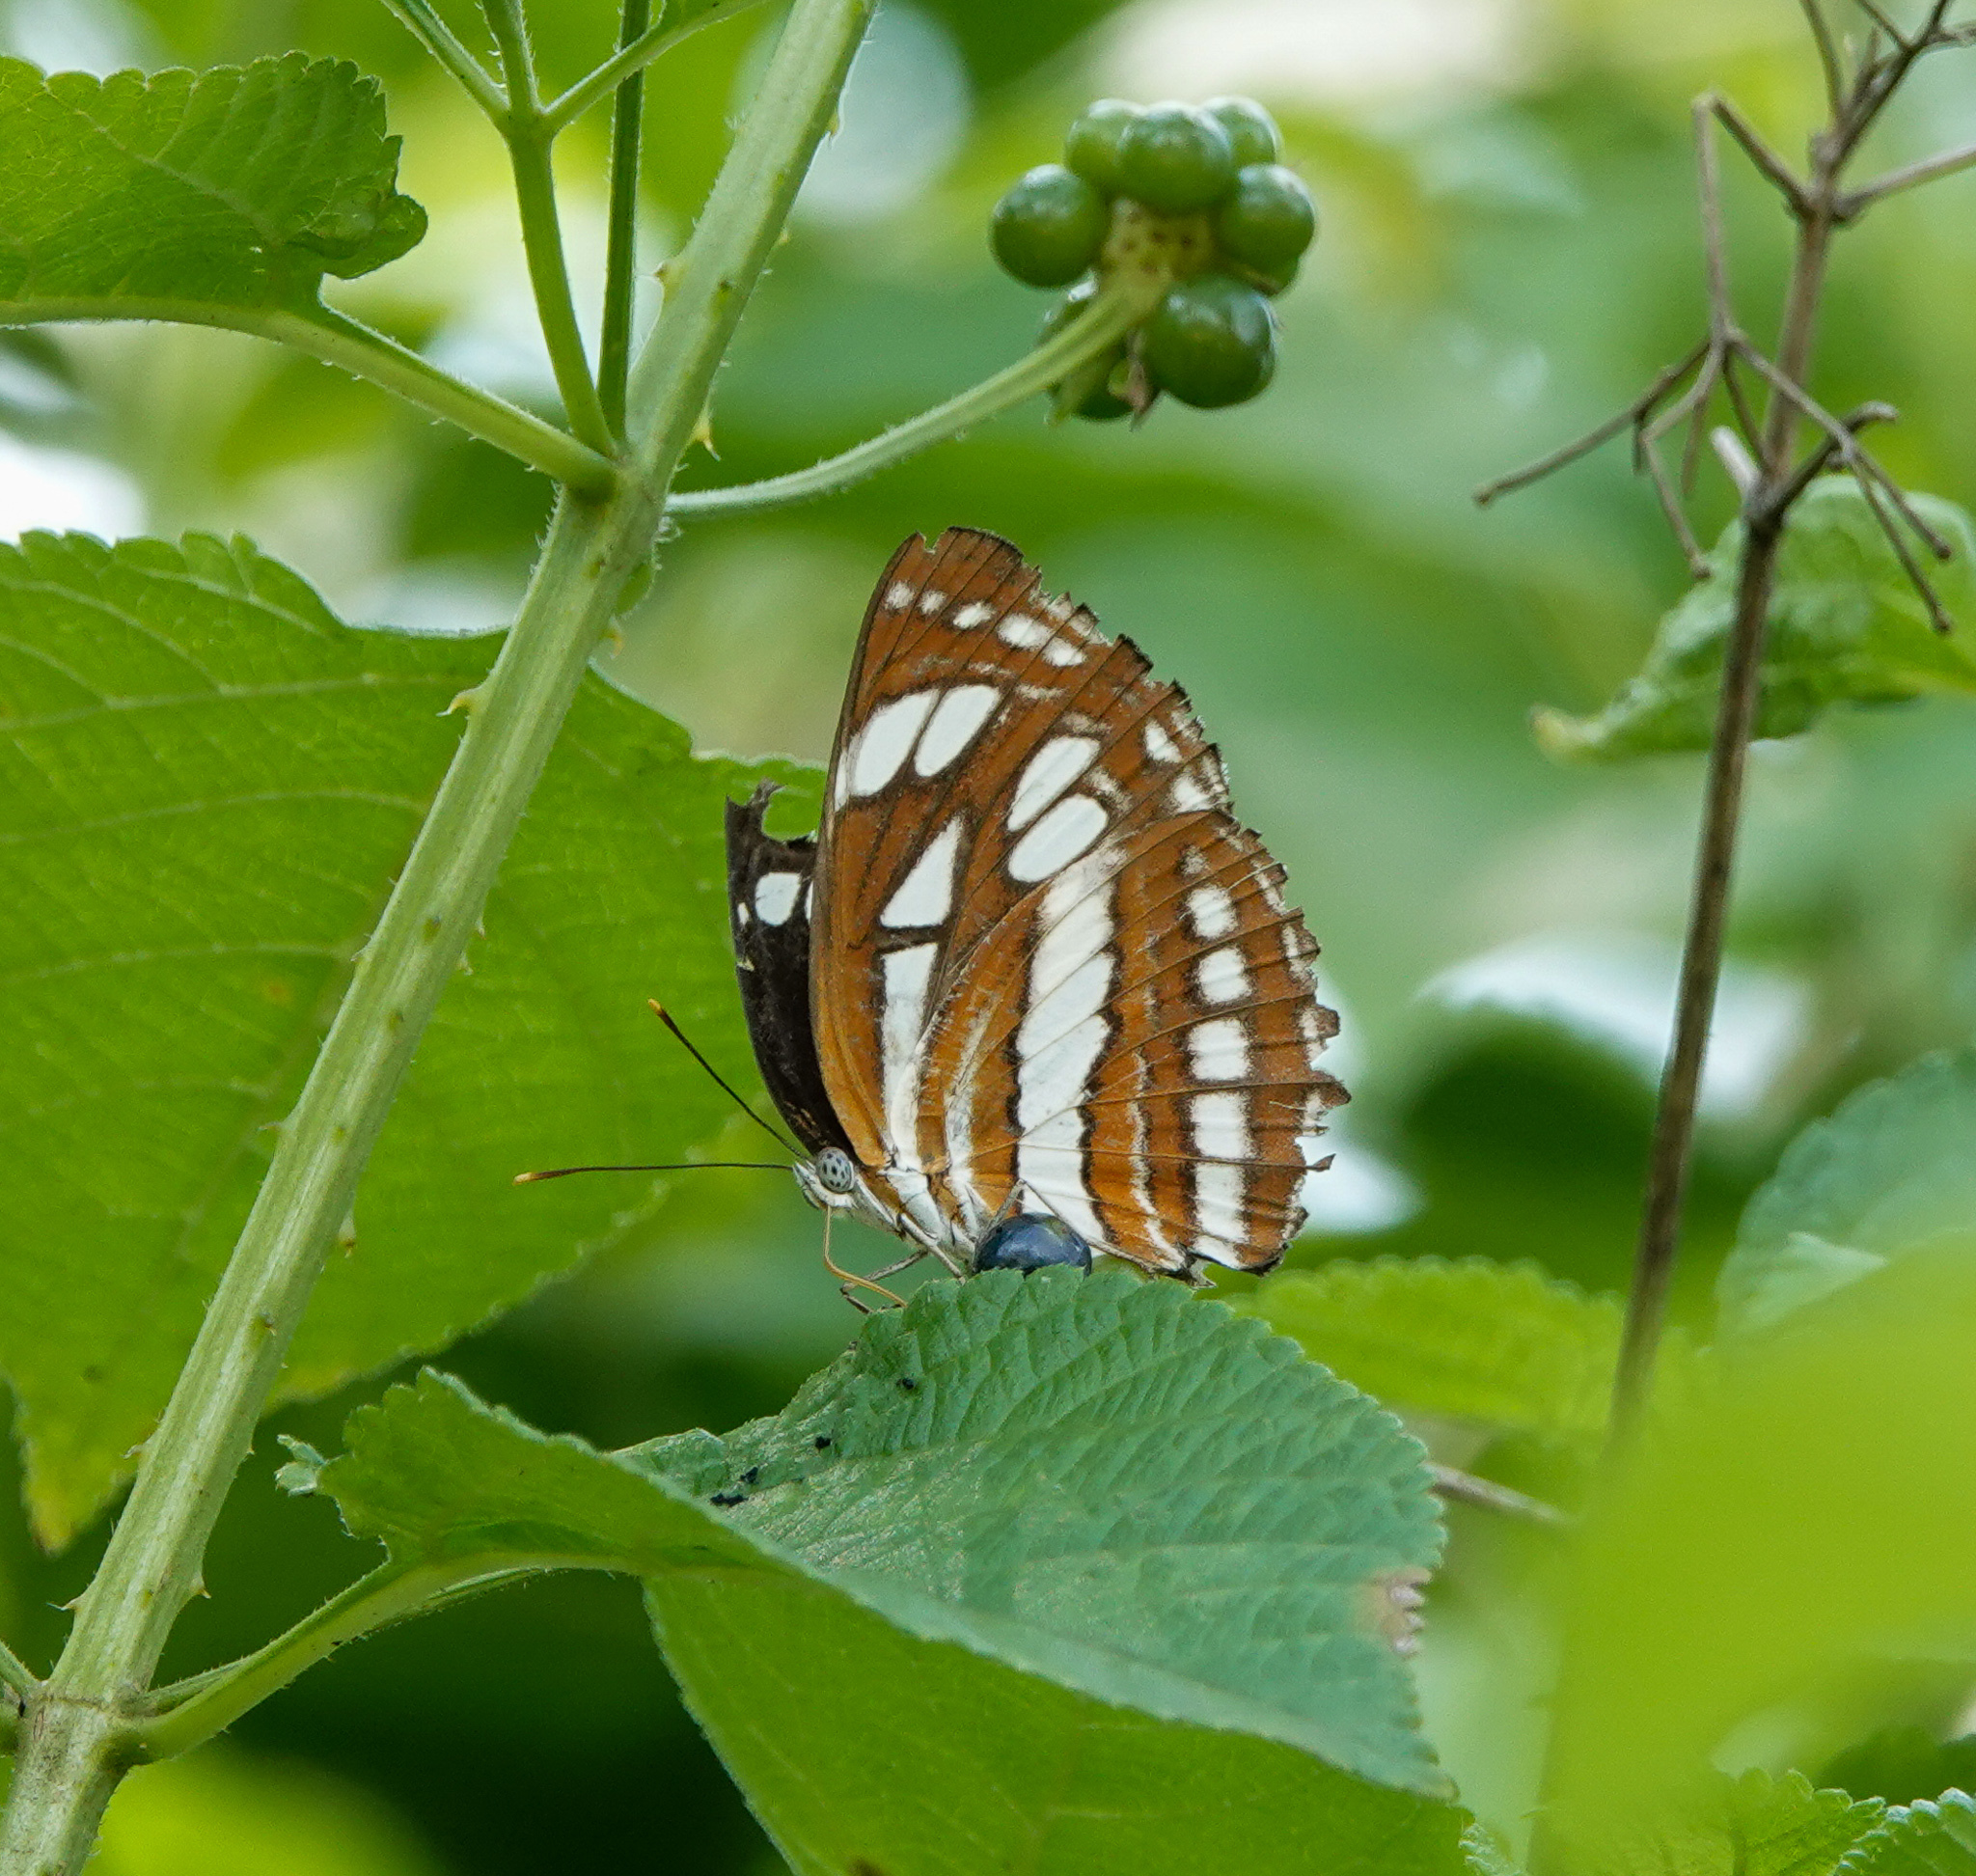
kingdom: Animalia
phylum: Arthropoda
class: Insecta
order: Lepidoptera
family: Nymphalidae
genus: Neptis
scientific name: Neptis hylas
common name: Common sailer
